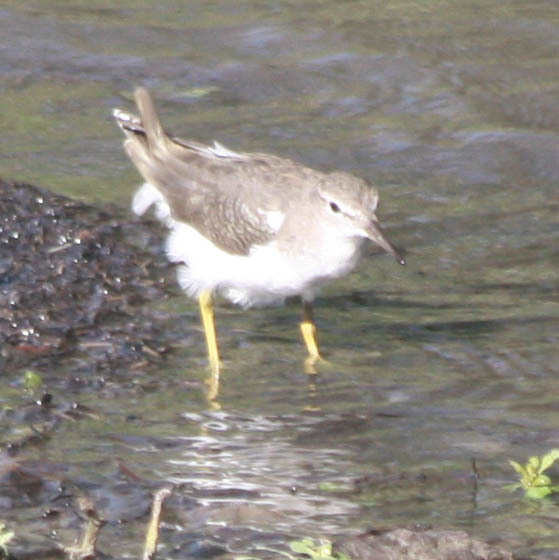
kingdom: Animalia
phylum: Chordata
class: Aves
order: Charadriiformes
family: Scolopacidae
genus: Actitis
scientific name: Actitis macularius
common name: Spotted sandpiper
